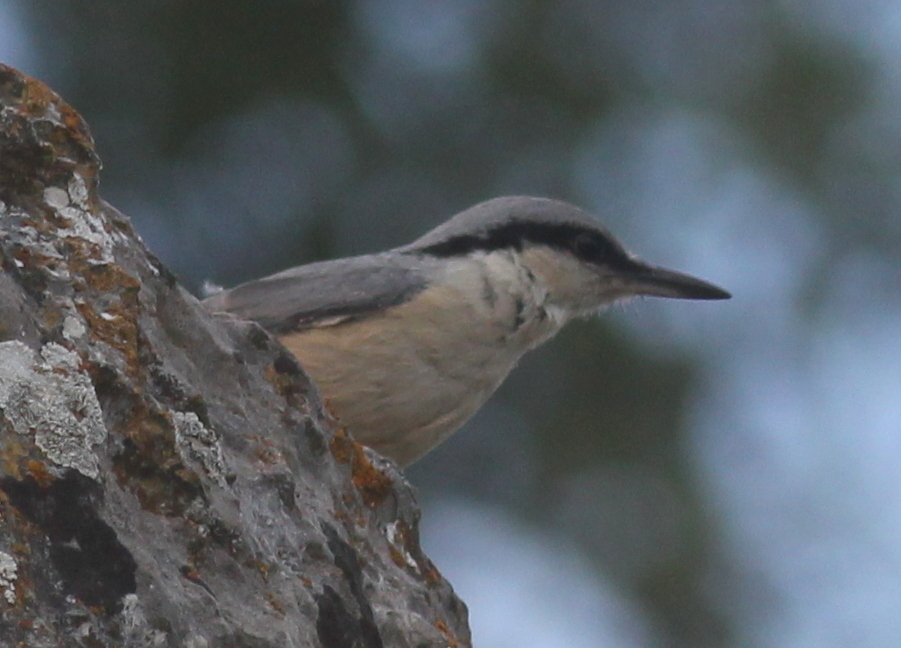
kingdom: Animalia
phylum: Chordata
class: Aves
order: Passeriformes
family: Sittidae
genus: Sitta
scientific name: Sitta neumayer
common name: Western rock nuthatch
